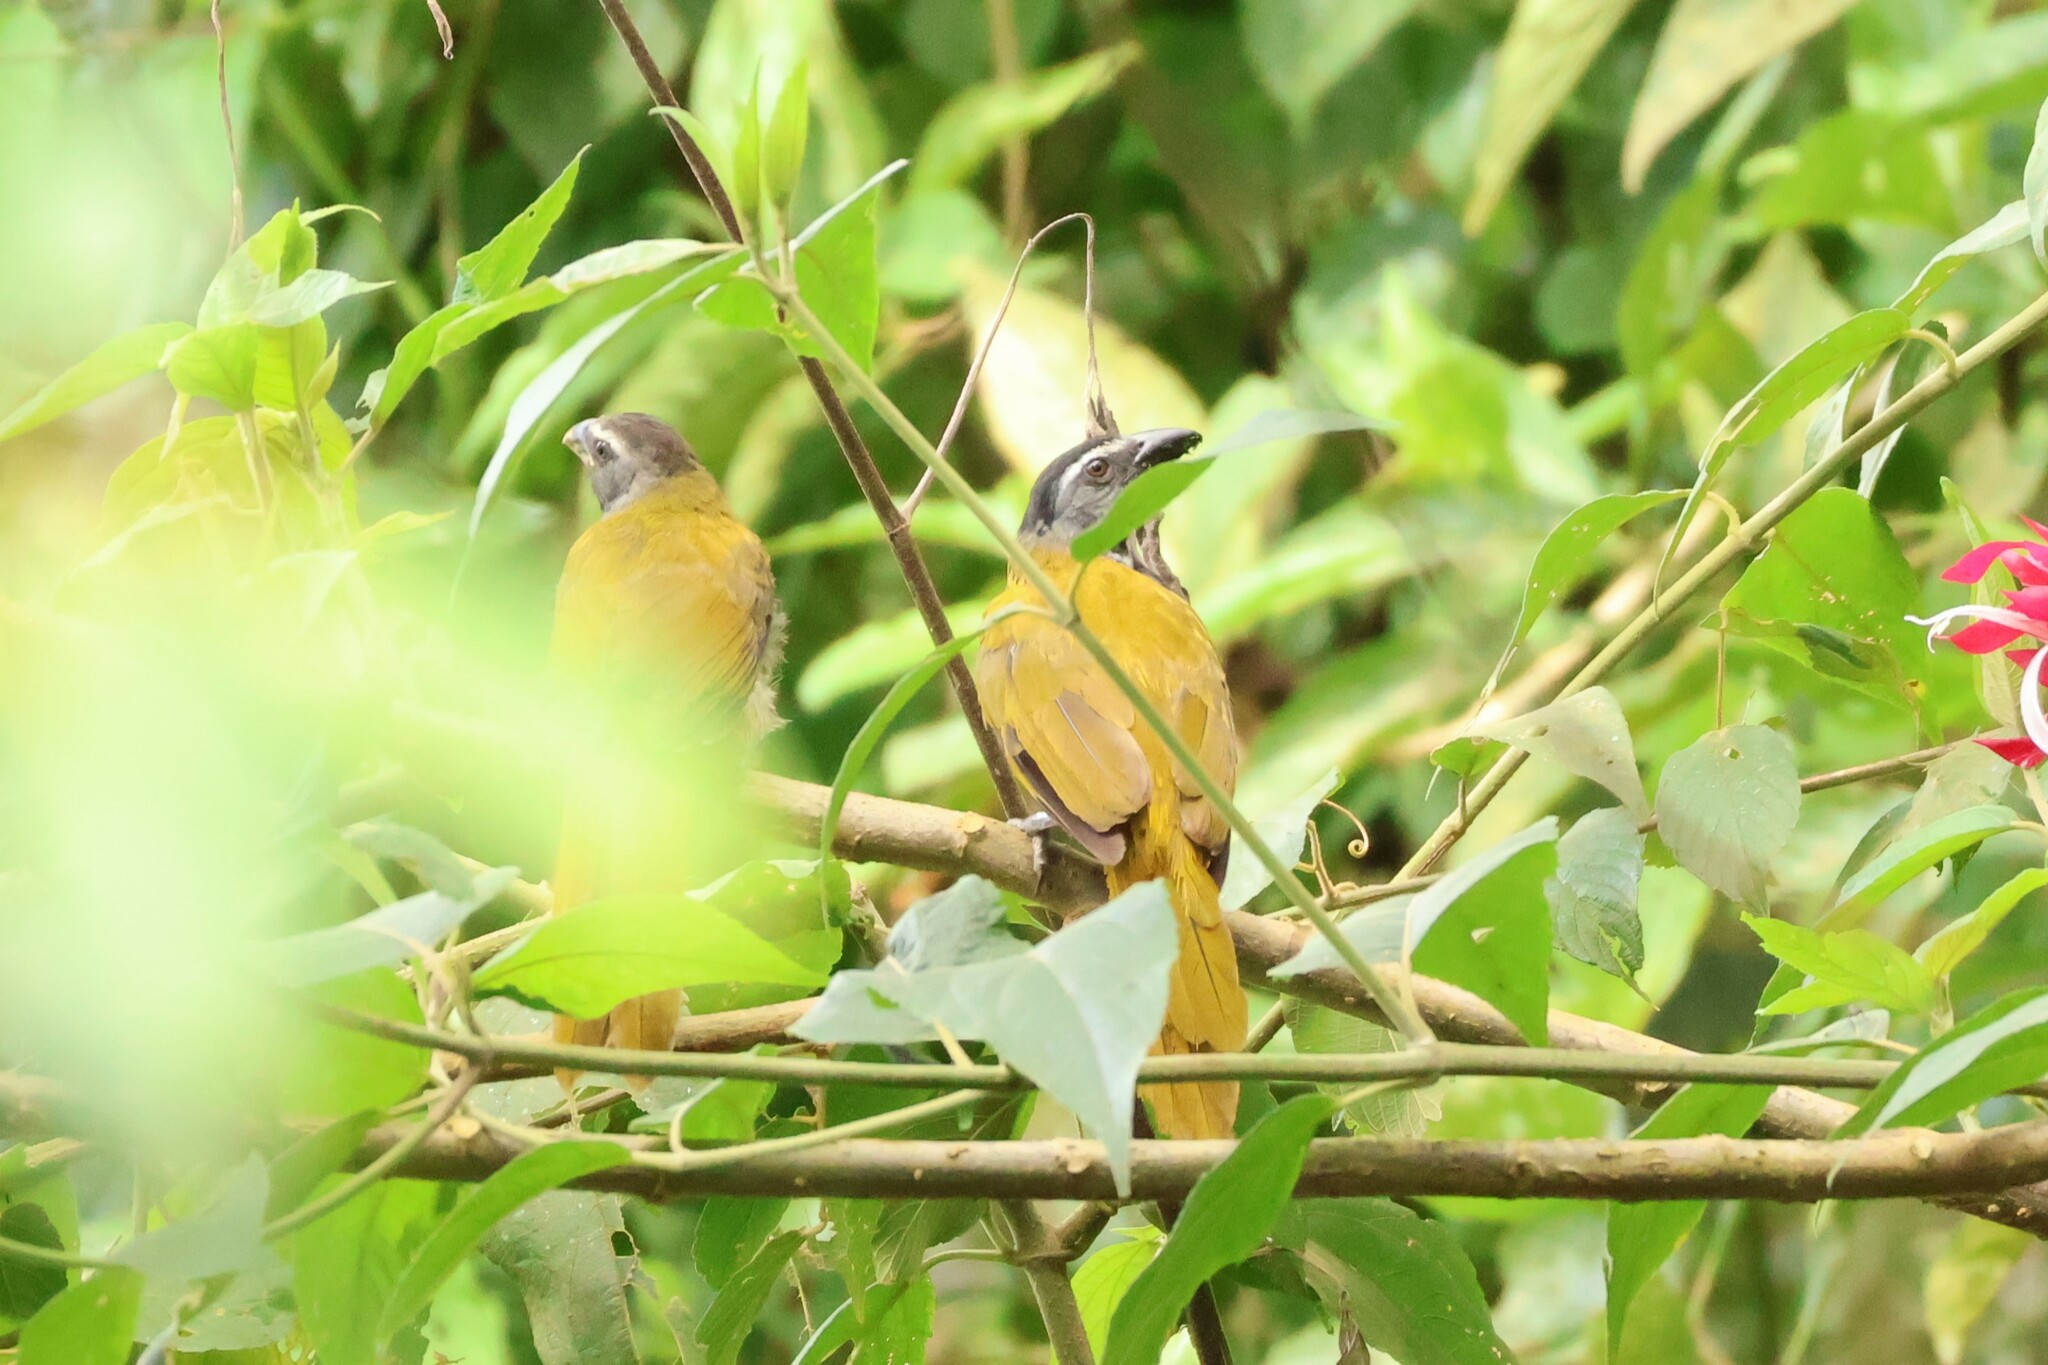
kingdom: Animalia
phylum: Chordata
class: Aves
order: Passeriformes
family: Thraupidae
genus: Saltator
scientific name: Saltator atriceps
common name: Black-headed saltator
